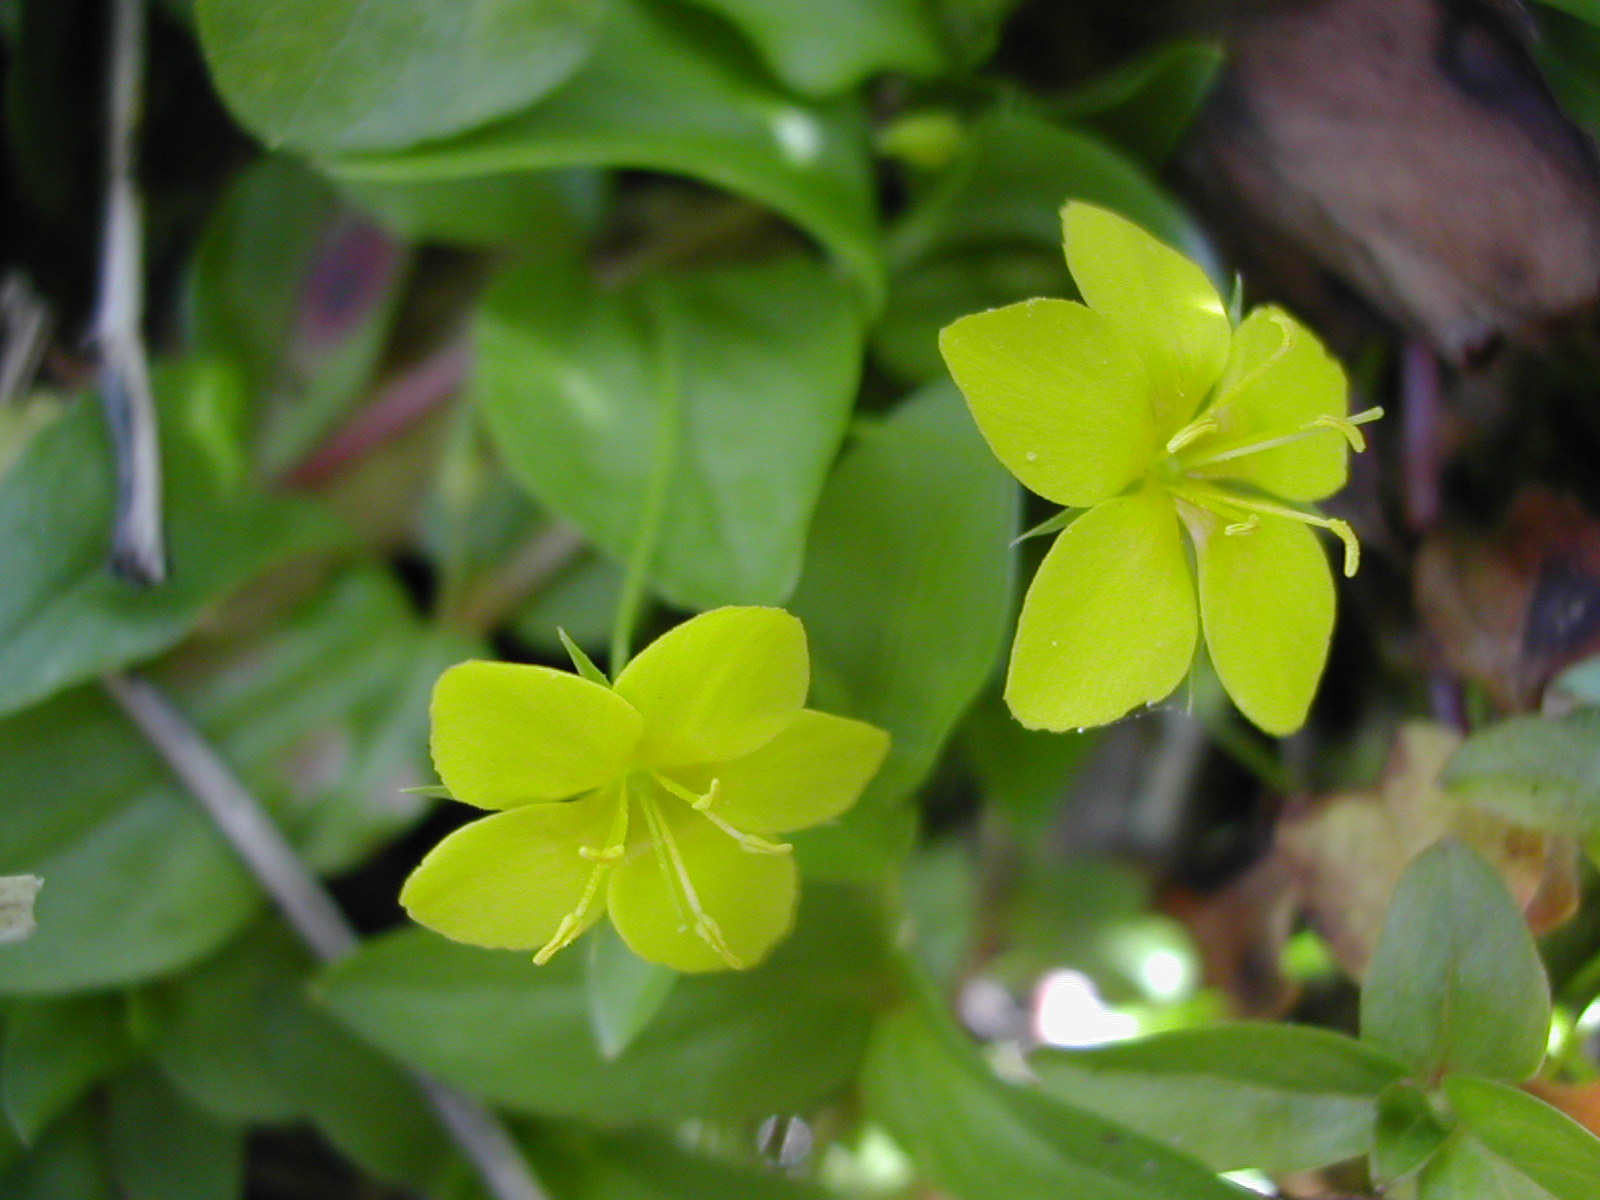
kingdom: Plantae
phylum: Tracheophyta
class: Magnoliopsida
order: Ericales
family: Primulaceae
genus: Lysimachia
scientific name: Lysimachia nemorum
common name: Yellow pimpernel
